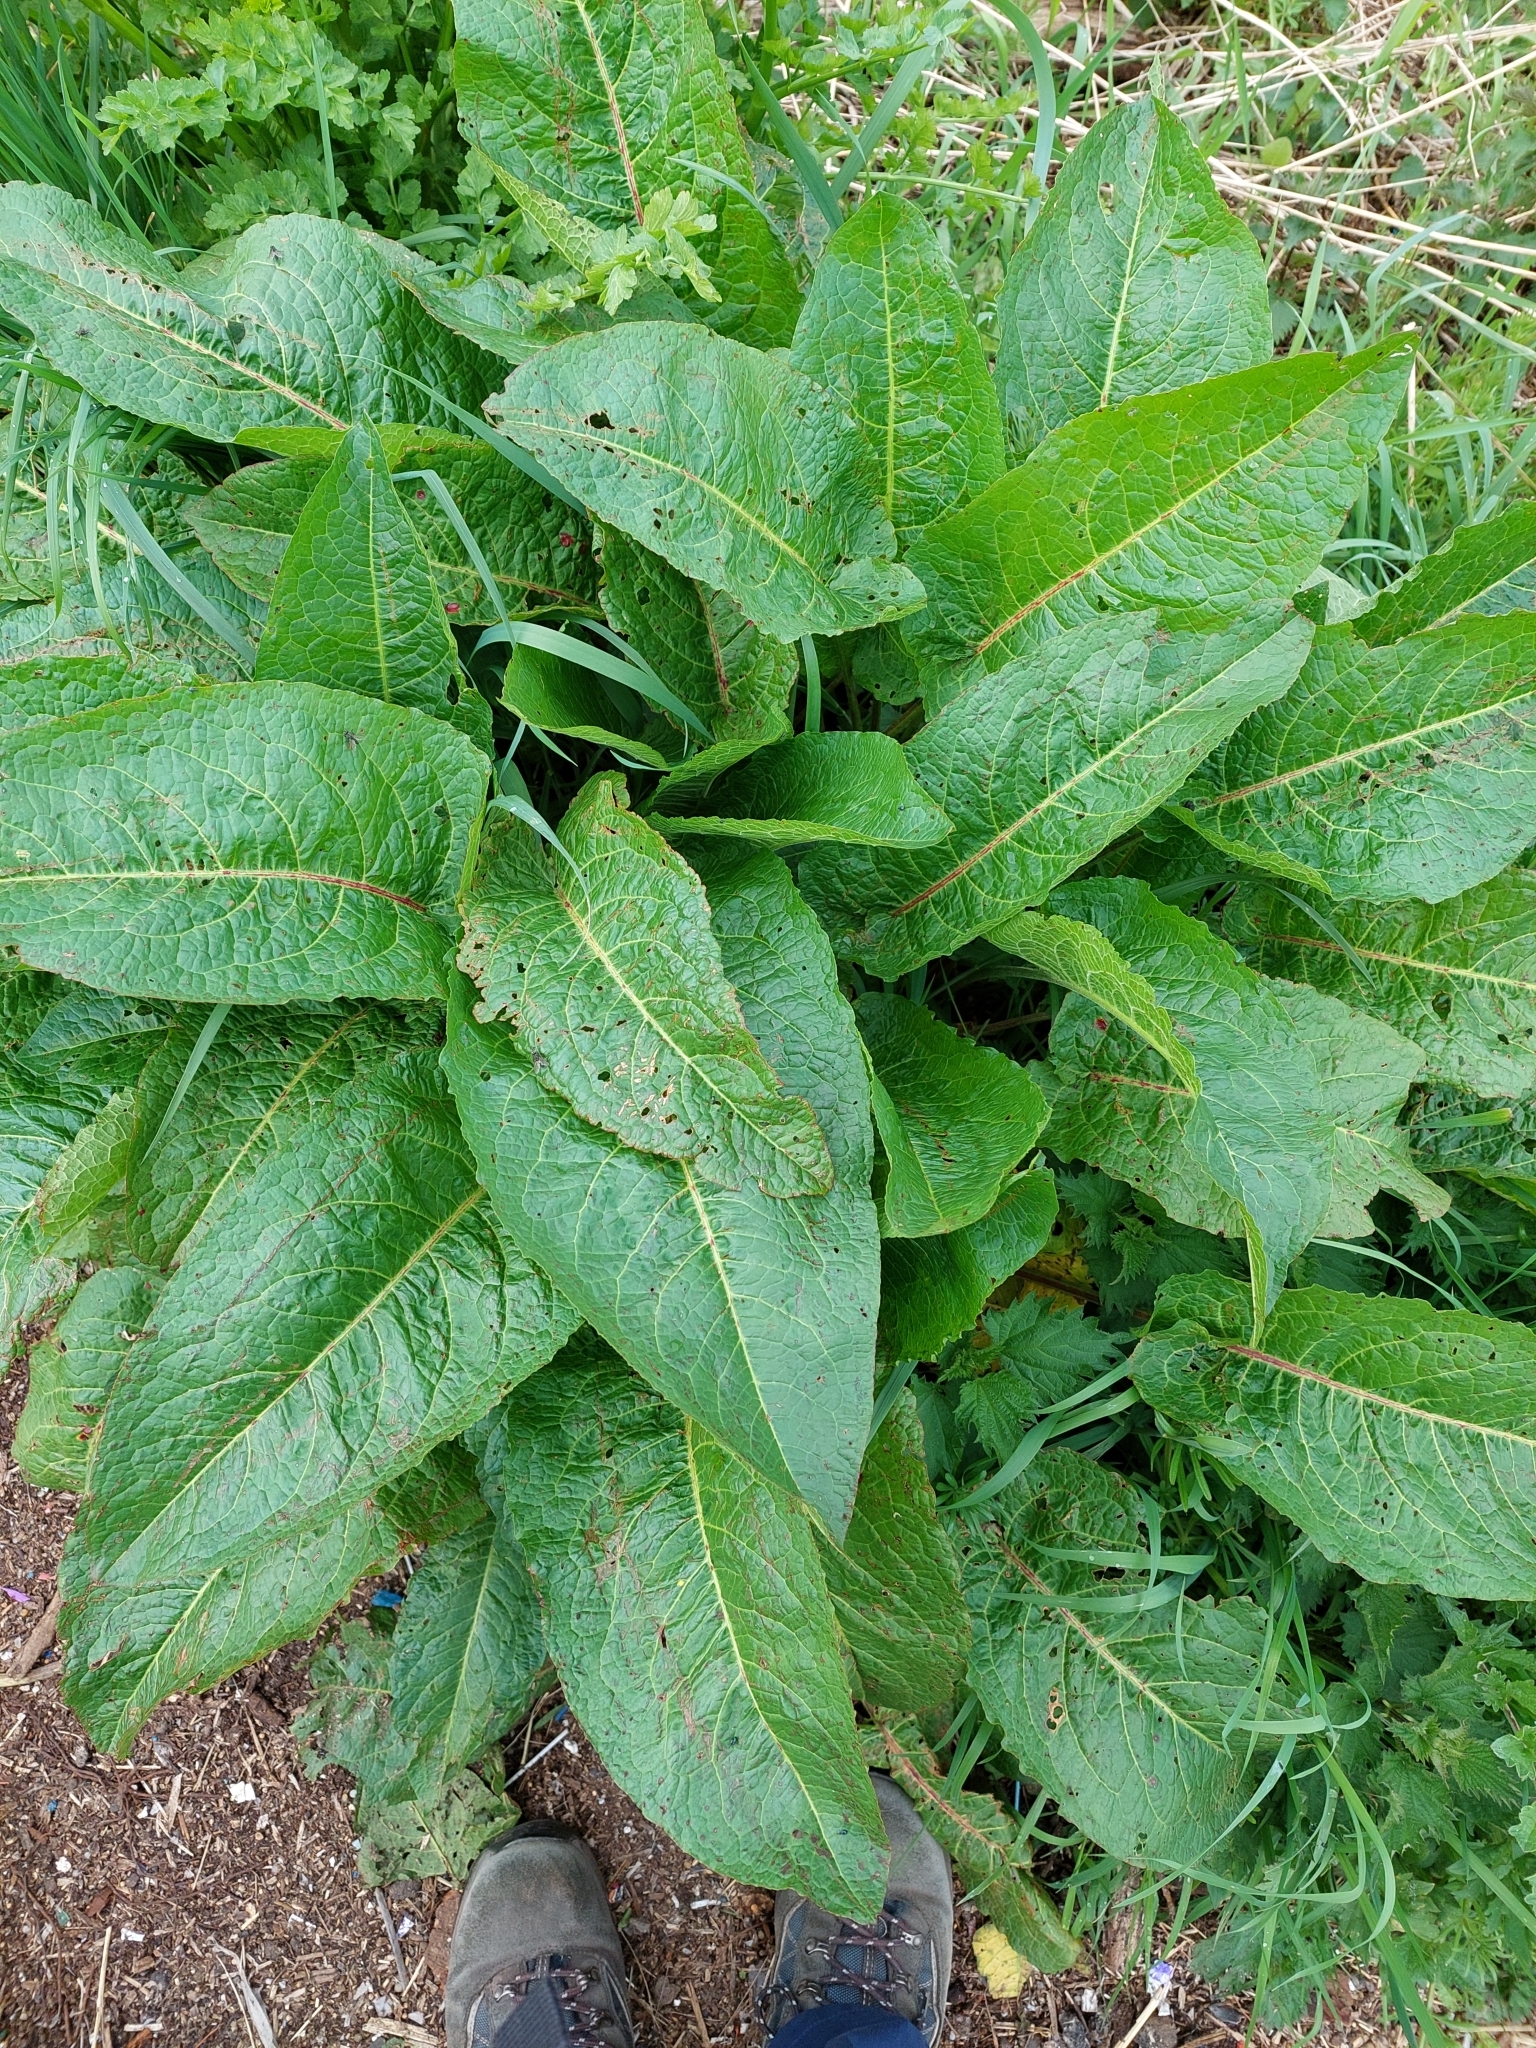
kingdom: Plantae
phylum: Tracheophyta
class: Magnoliopsida
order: Caryophyllales
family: Polygonaceae
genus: Rumex
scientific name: Rumex obtusifolius
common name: Bitter dock
